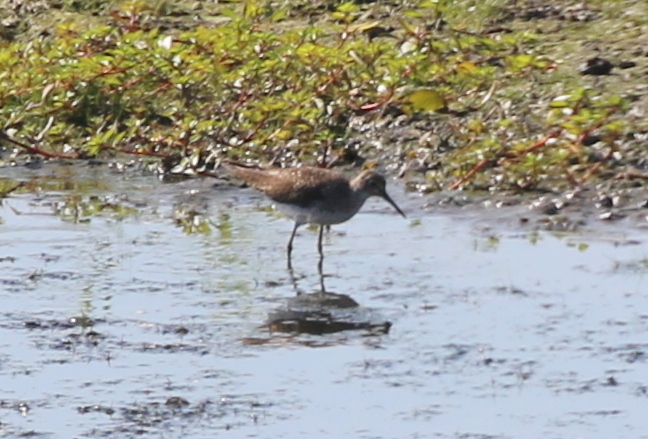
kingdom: Animalia
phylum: Chordata
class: Aves
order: Charadriiformes
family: Scolopacidae
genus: Tringa
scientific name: Tringa solitaria
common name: Solitary sandpiper
